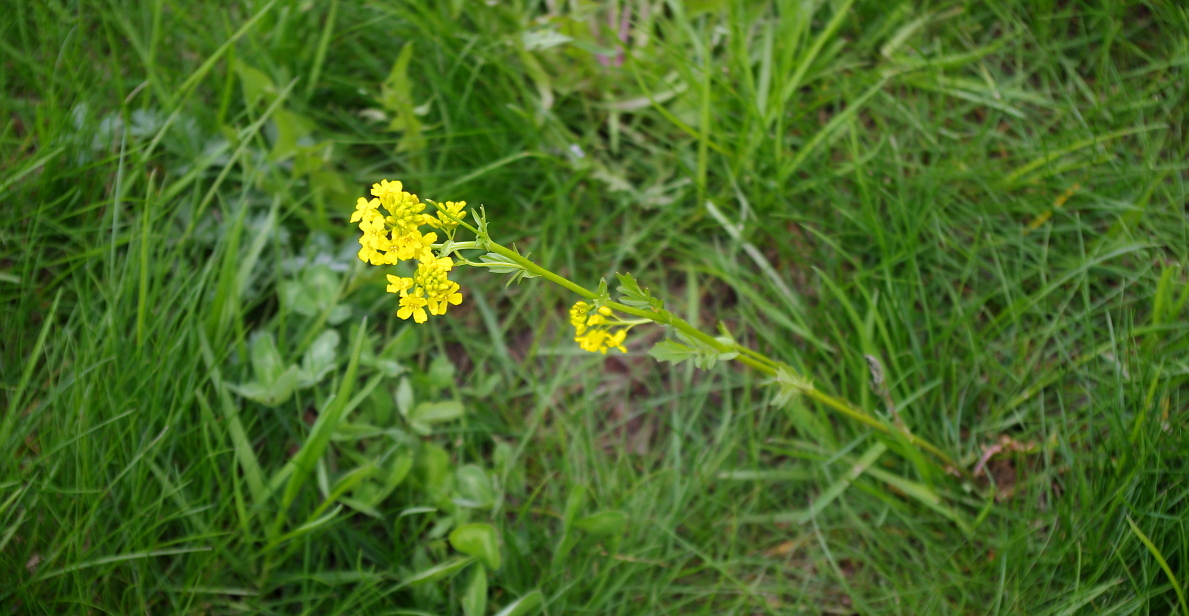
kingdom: Plantae
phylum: Tracheophyta
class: Magnoliopsida
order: Brassicales
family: Brassicaceae
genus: Barbarea
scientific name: Barbarea vulgaris
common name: Cressy-greens
